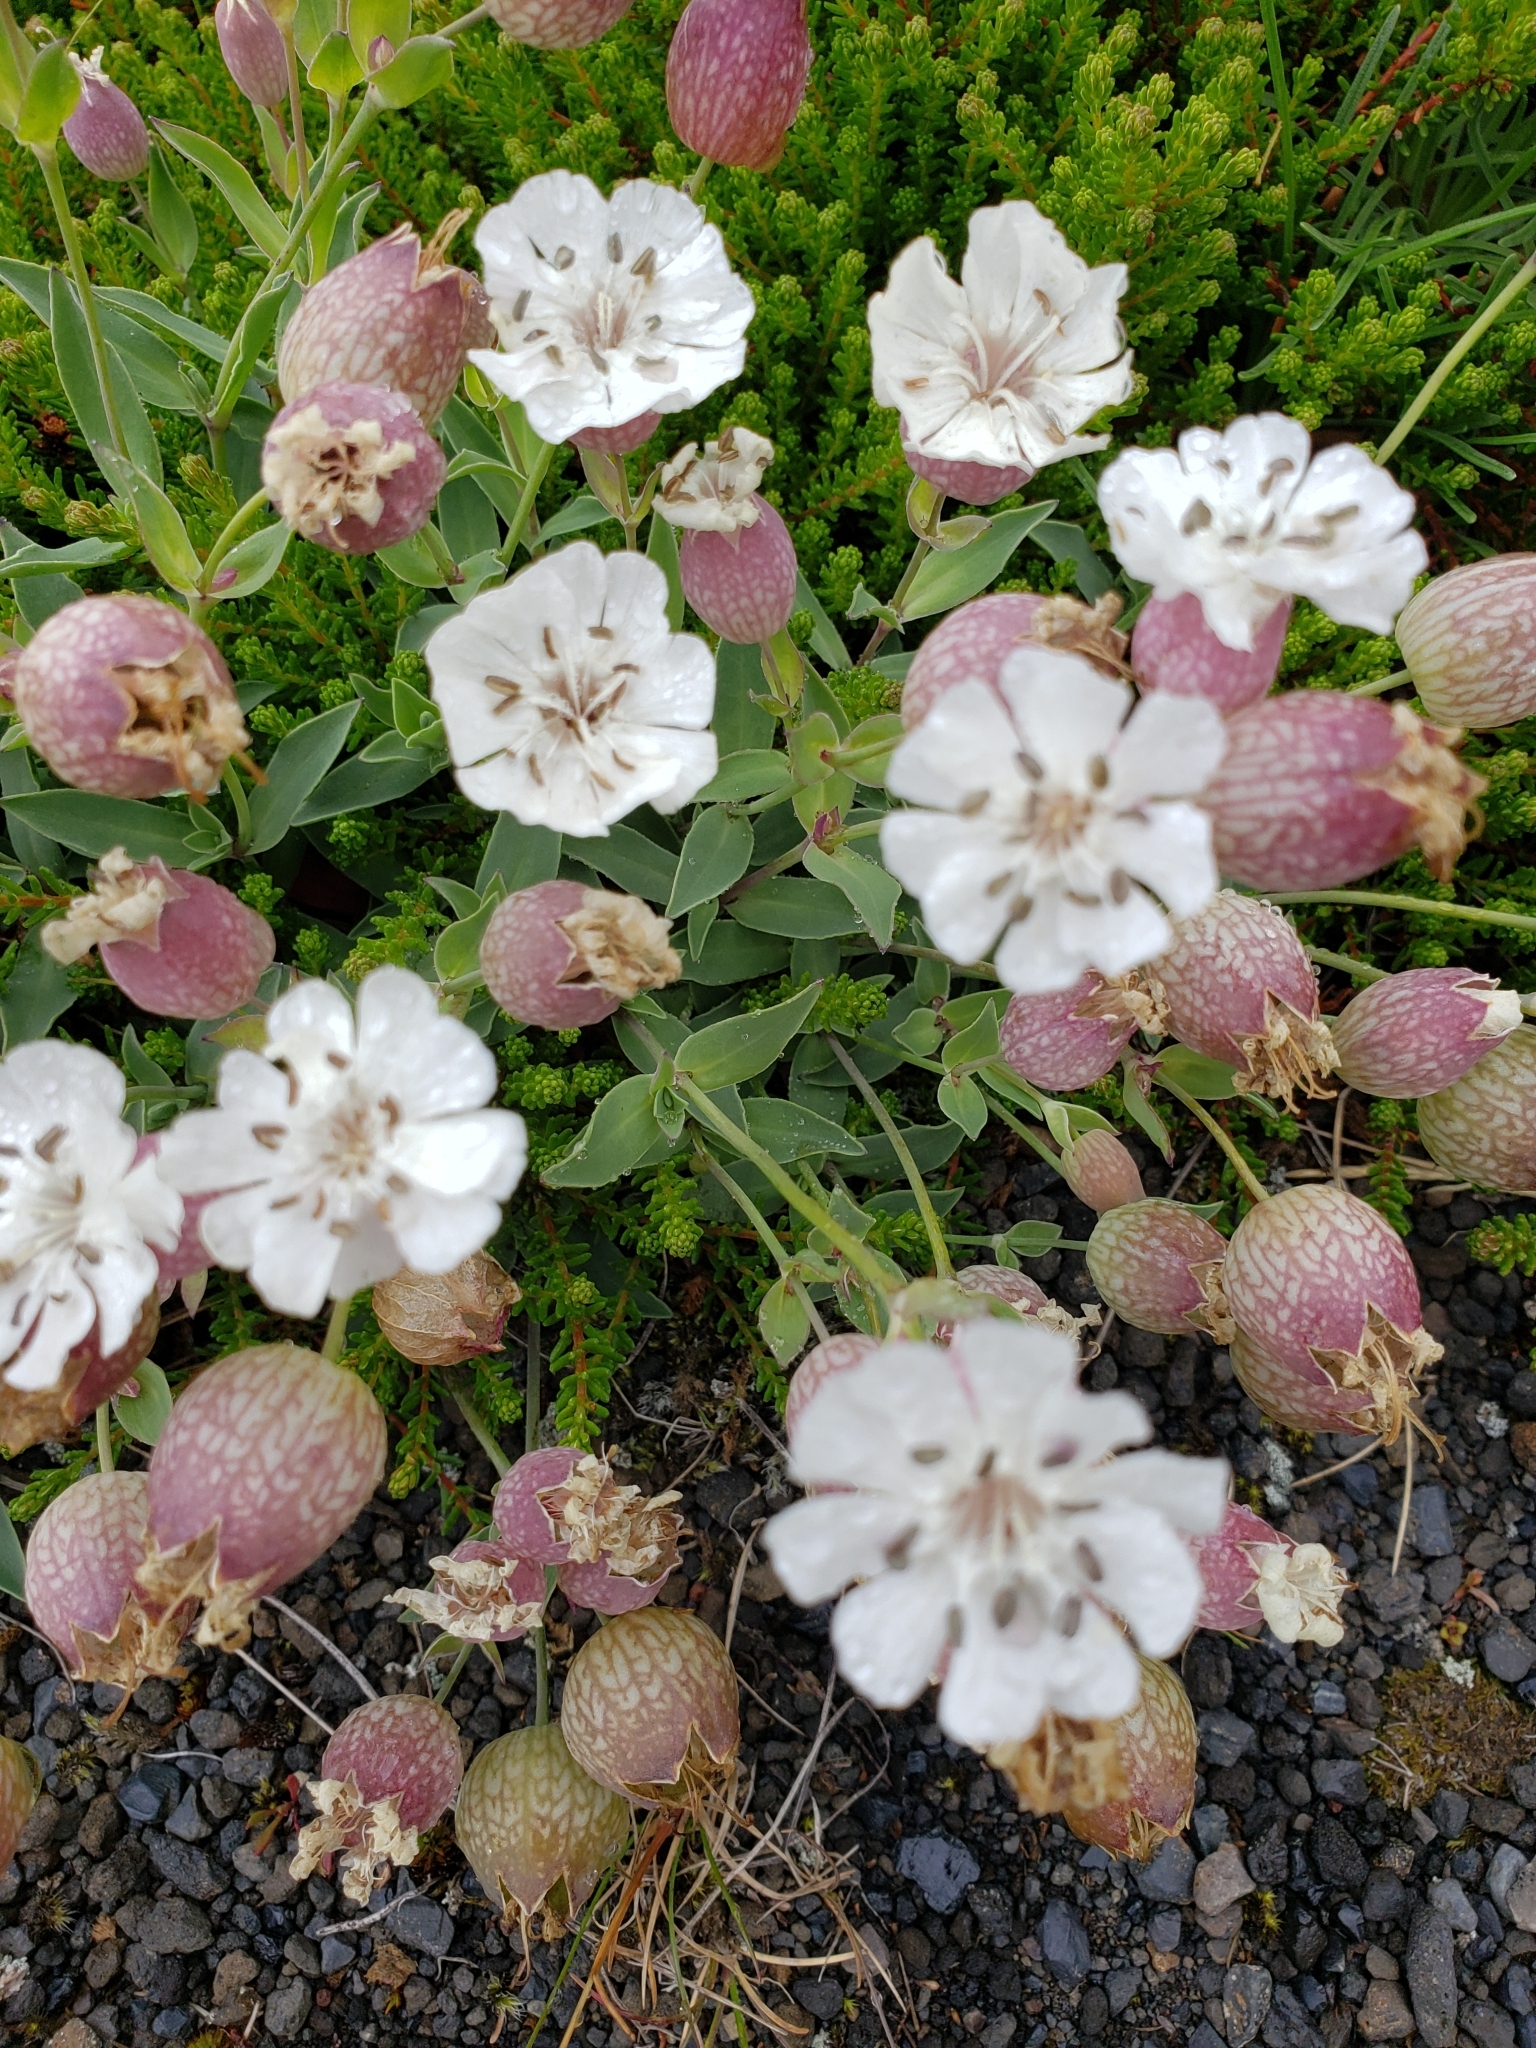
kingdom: Plantae
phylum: Tracheophyta
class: Magnoliopsida
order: Caryophyllales
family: Caryophyllaceae
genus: Silene
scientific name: Silene uniflora
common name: Sea campion
